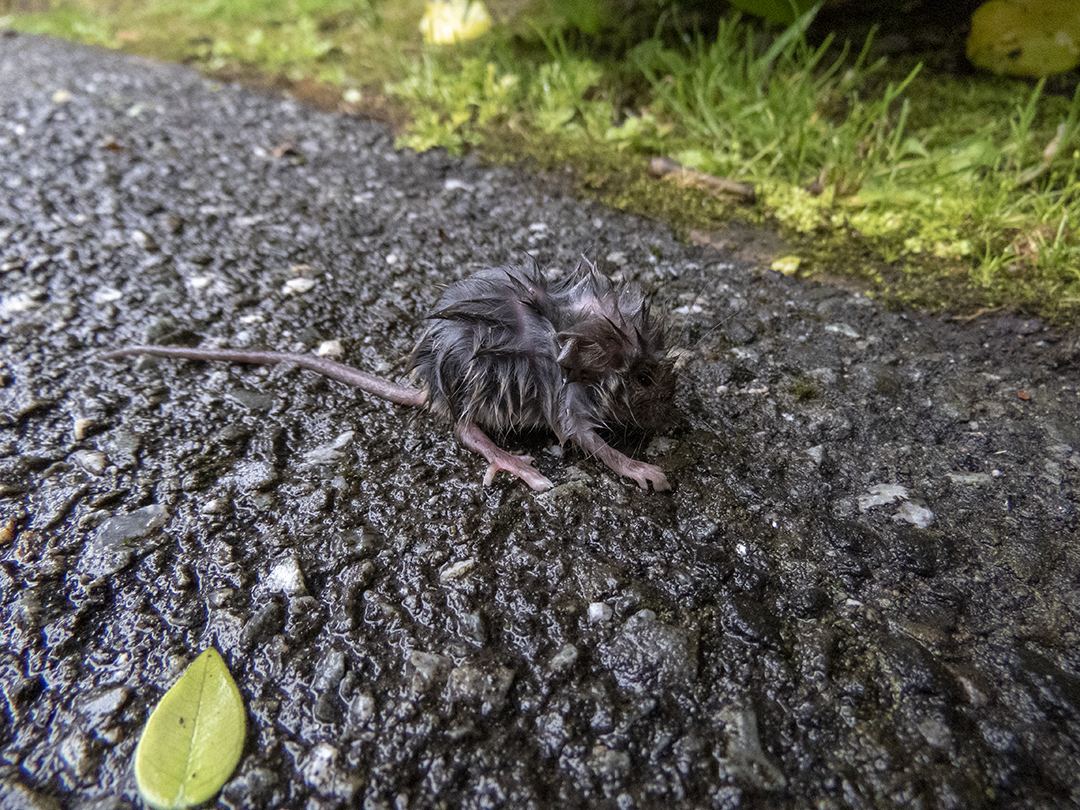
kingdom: Animalia
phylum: Chordata
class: Mammalia
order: Rodentia
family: Muridae
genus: Mus
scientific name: Mus musculus
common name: House mouse
